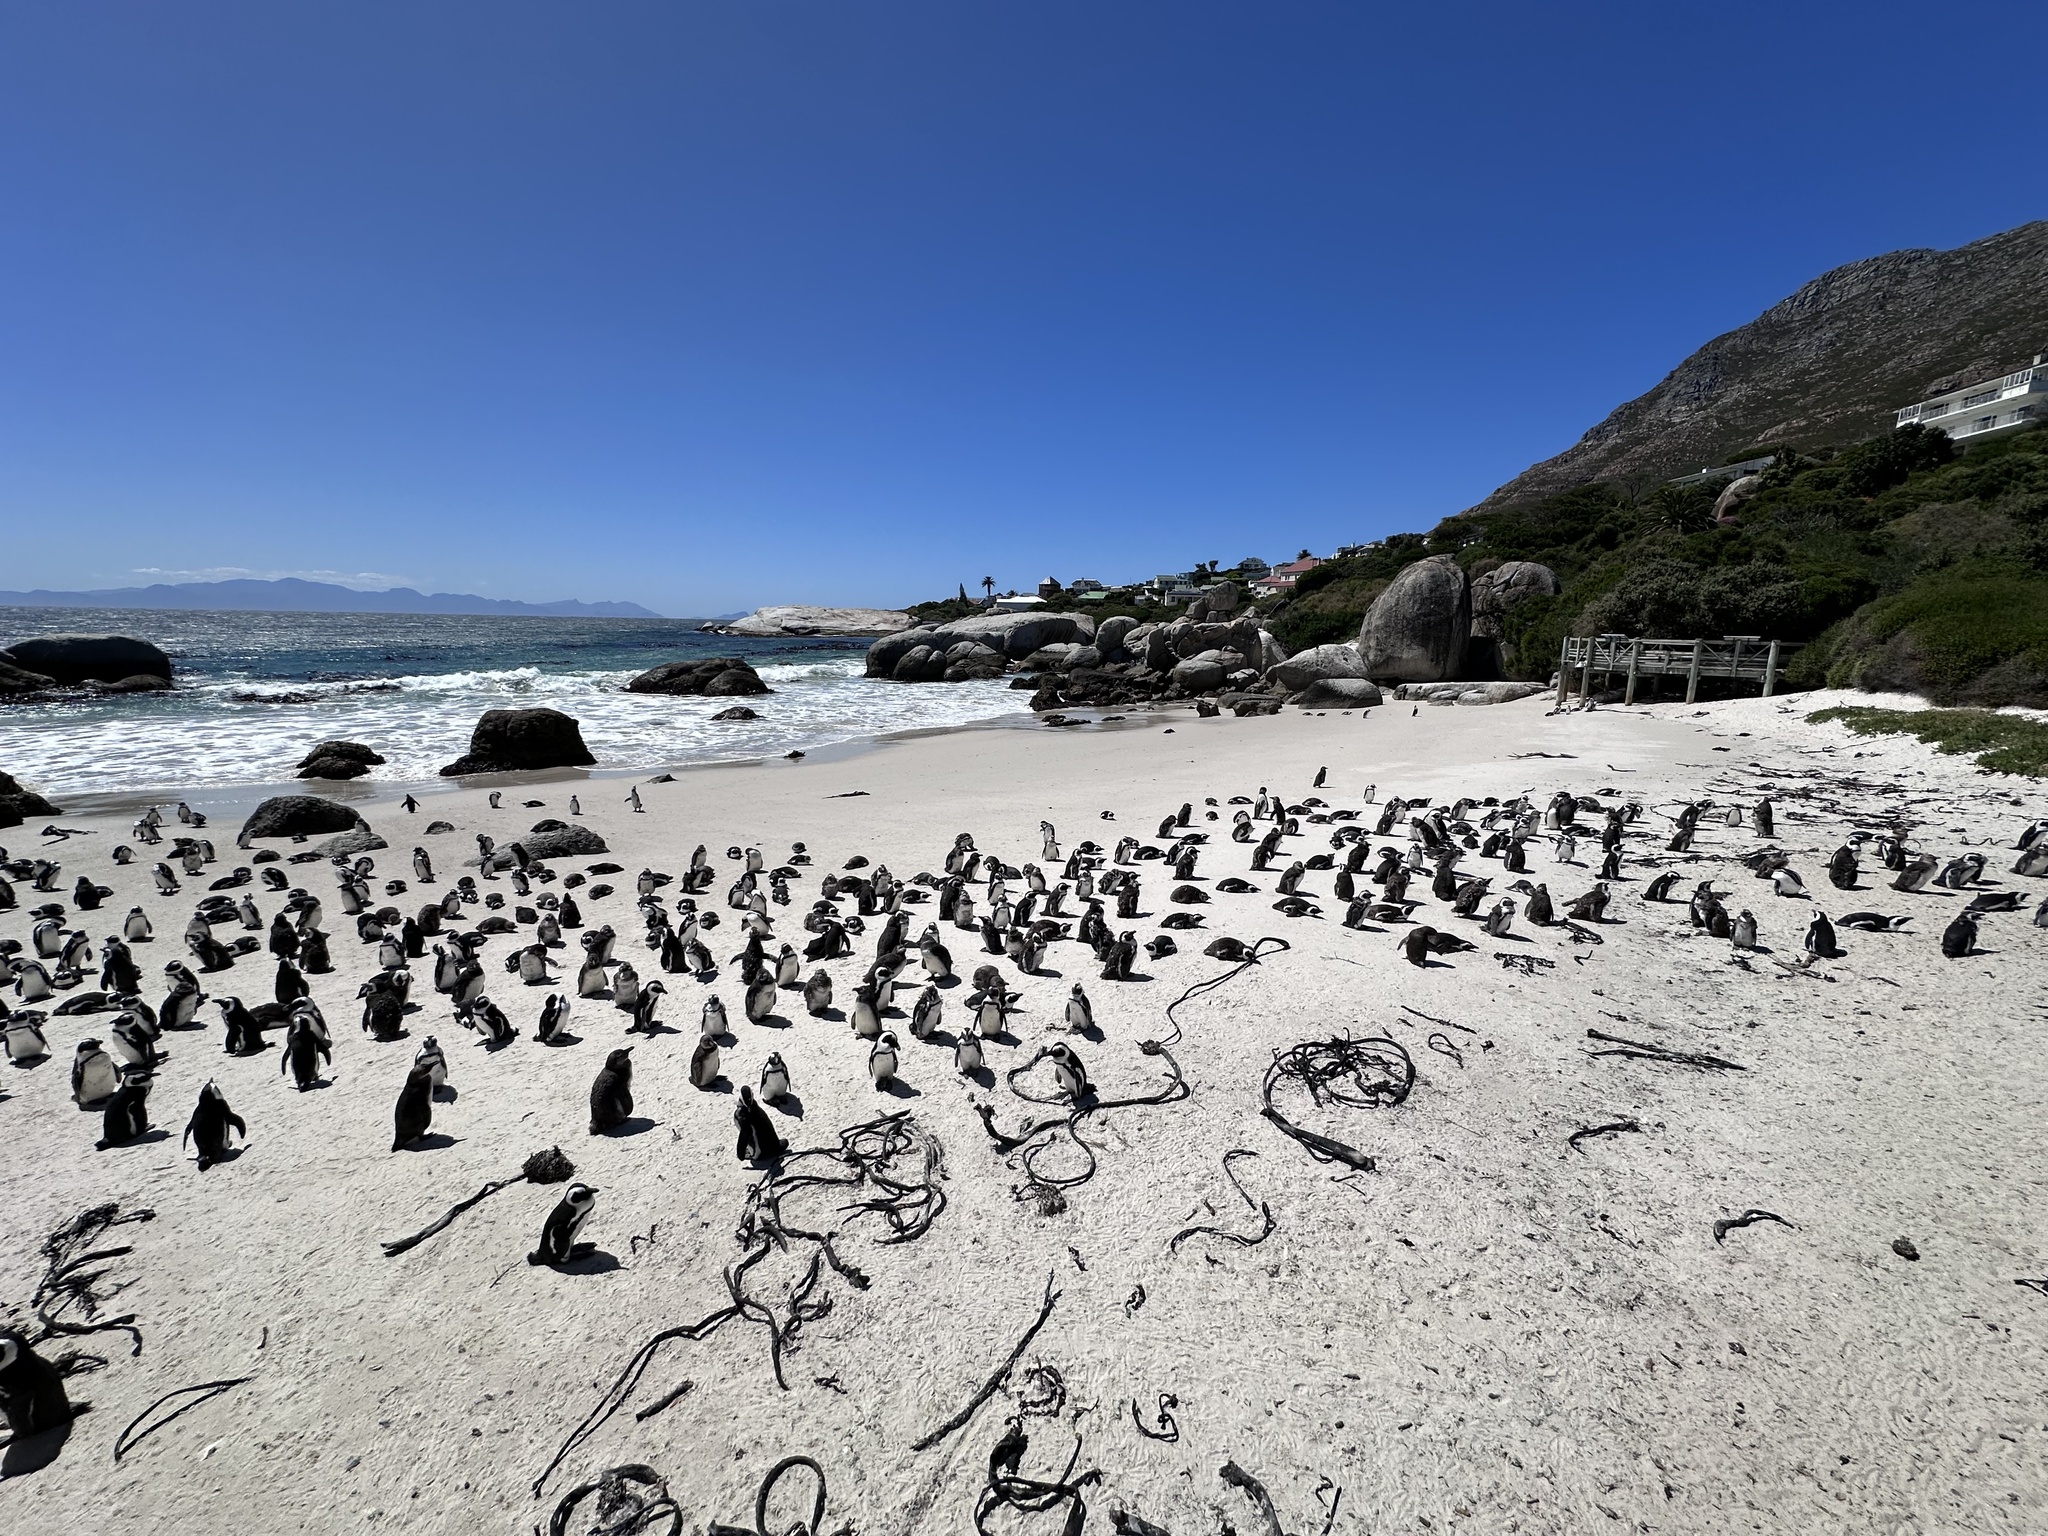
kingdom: Animalia
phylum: Chordata
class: Aves
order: Sphenisciformes
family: Spheniscidae
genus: Spheniscus
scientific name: Spheniscus demersus
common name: African penguin
